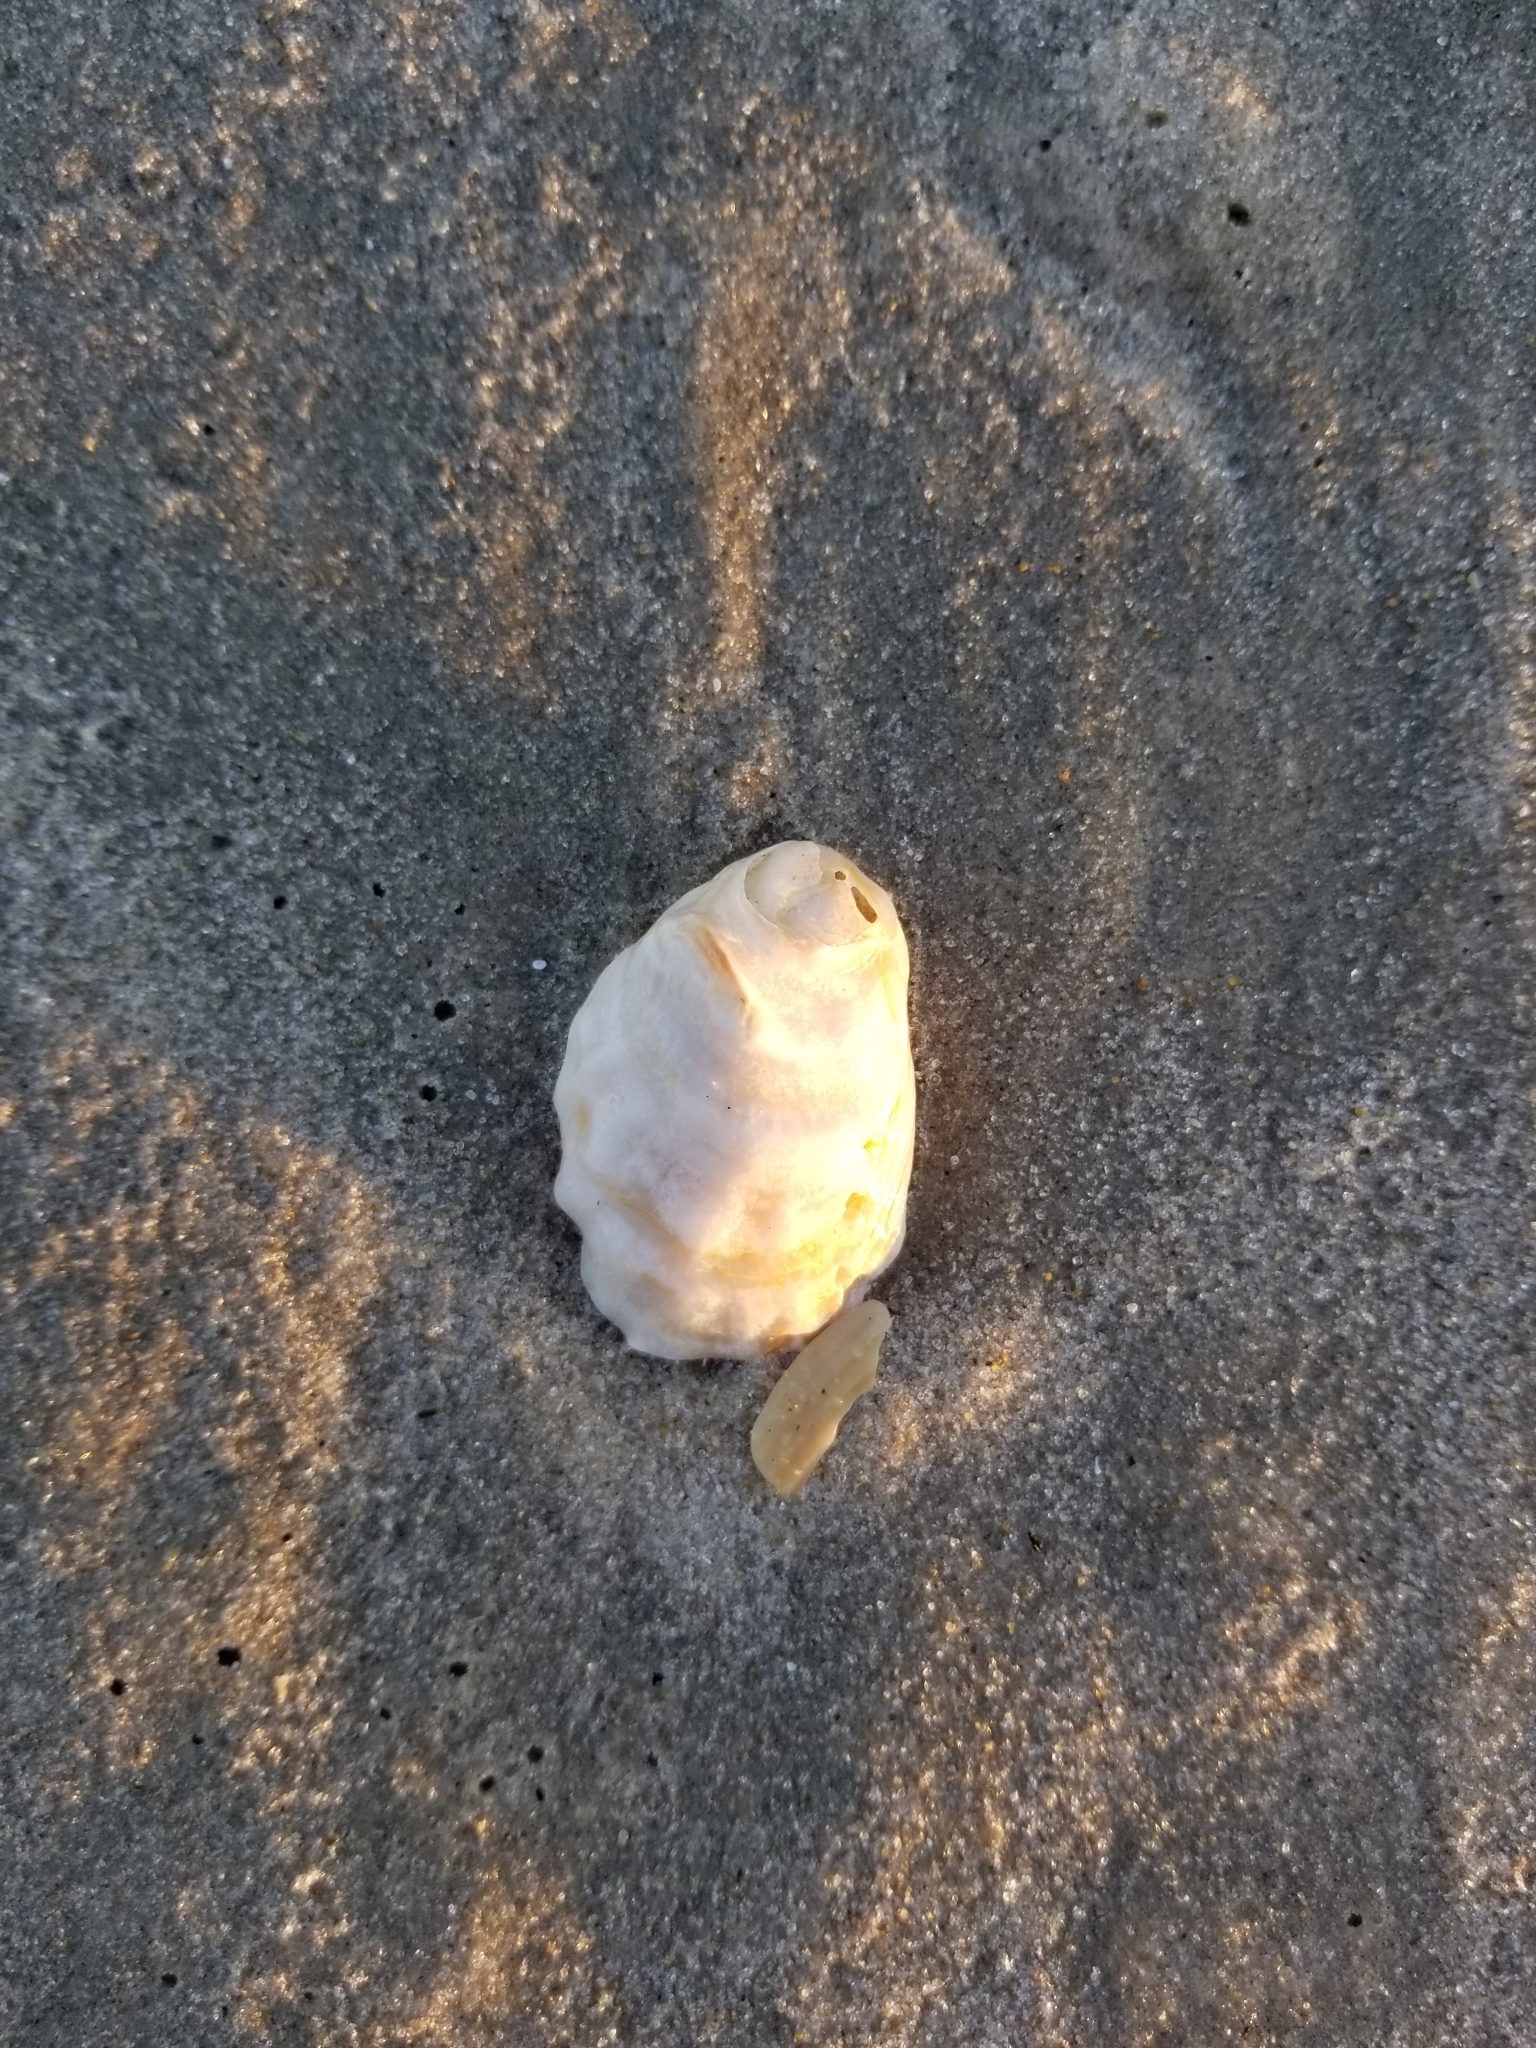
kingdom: Animalia
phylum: Mollusca
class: Gastropoda
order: Littorinimorpha
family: Calyptraeidae
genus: Crepidula
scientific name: Crepidula fornicata
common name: Slipper limpet
